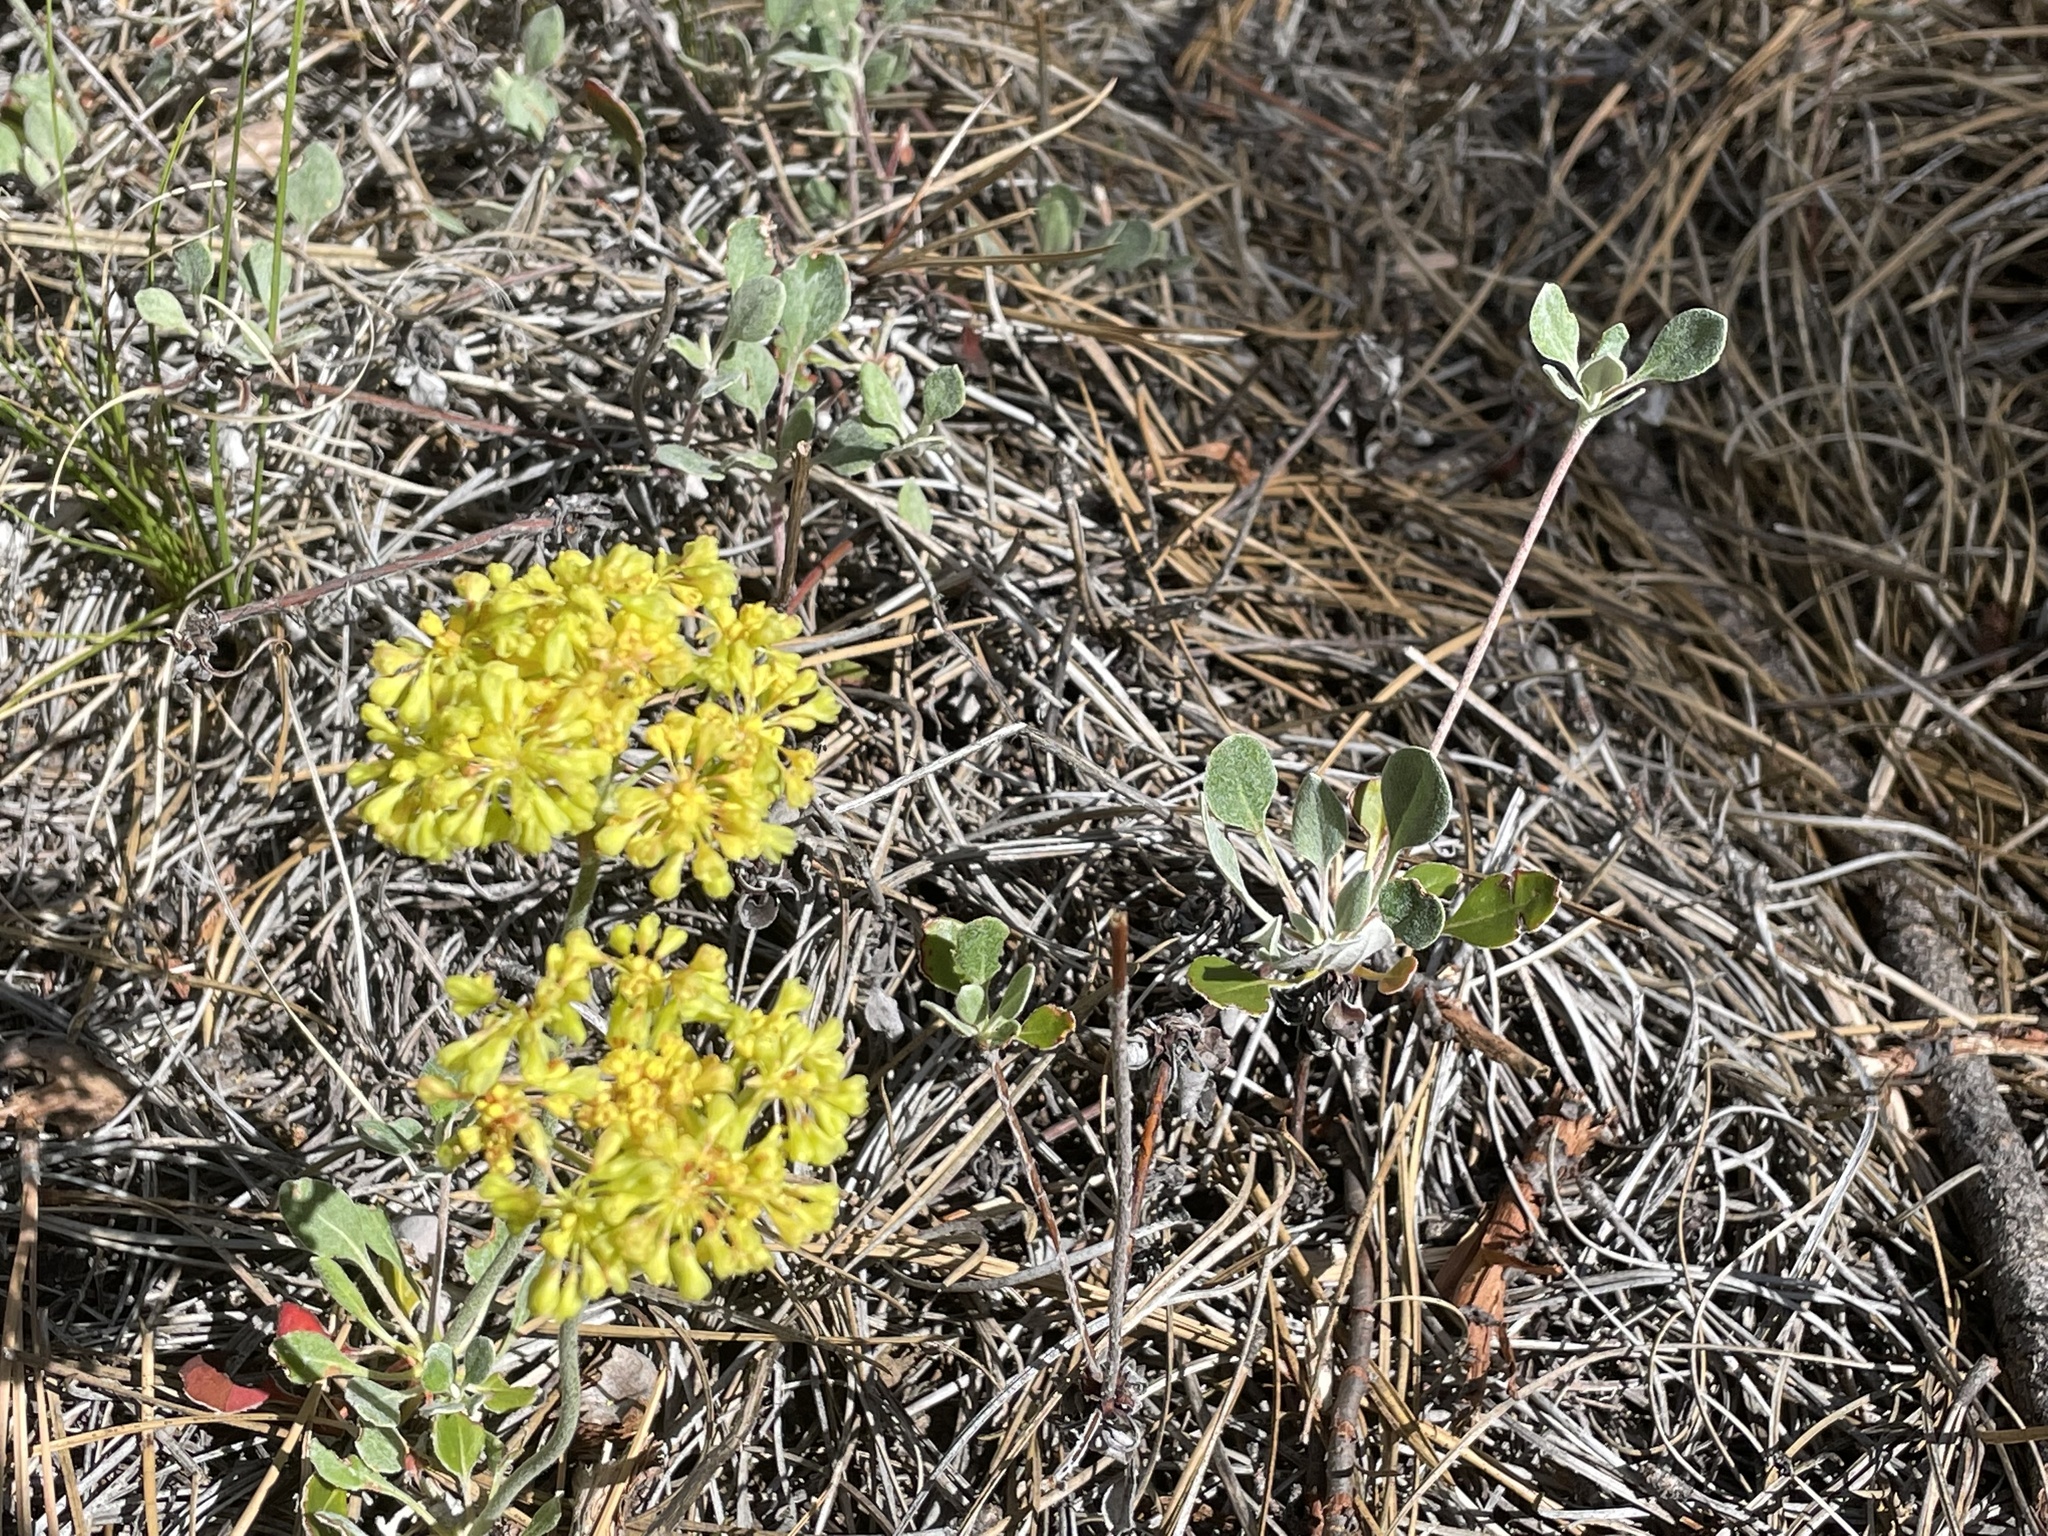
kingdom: Plantae
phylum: Tracheophyta
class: Magnoliopsida
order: Caryophyllales
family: Polygonaceae
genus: Eriogonum
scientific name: Eriogonum umbellatum
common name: Sulfur-buckwheat
